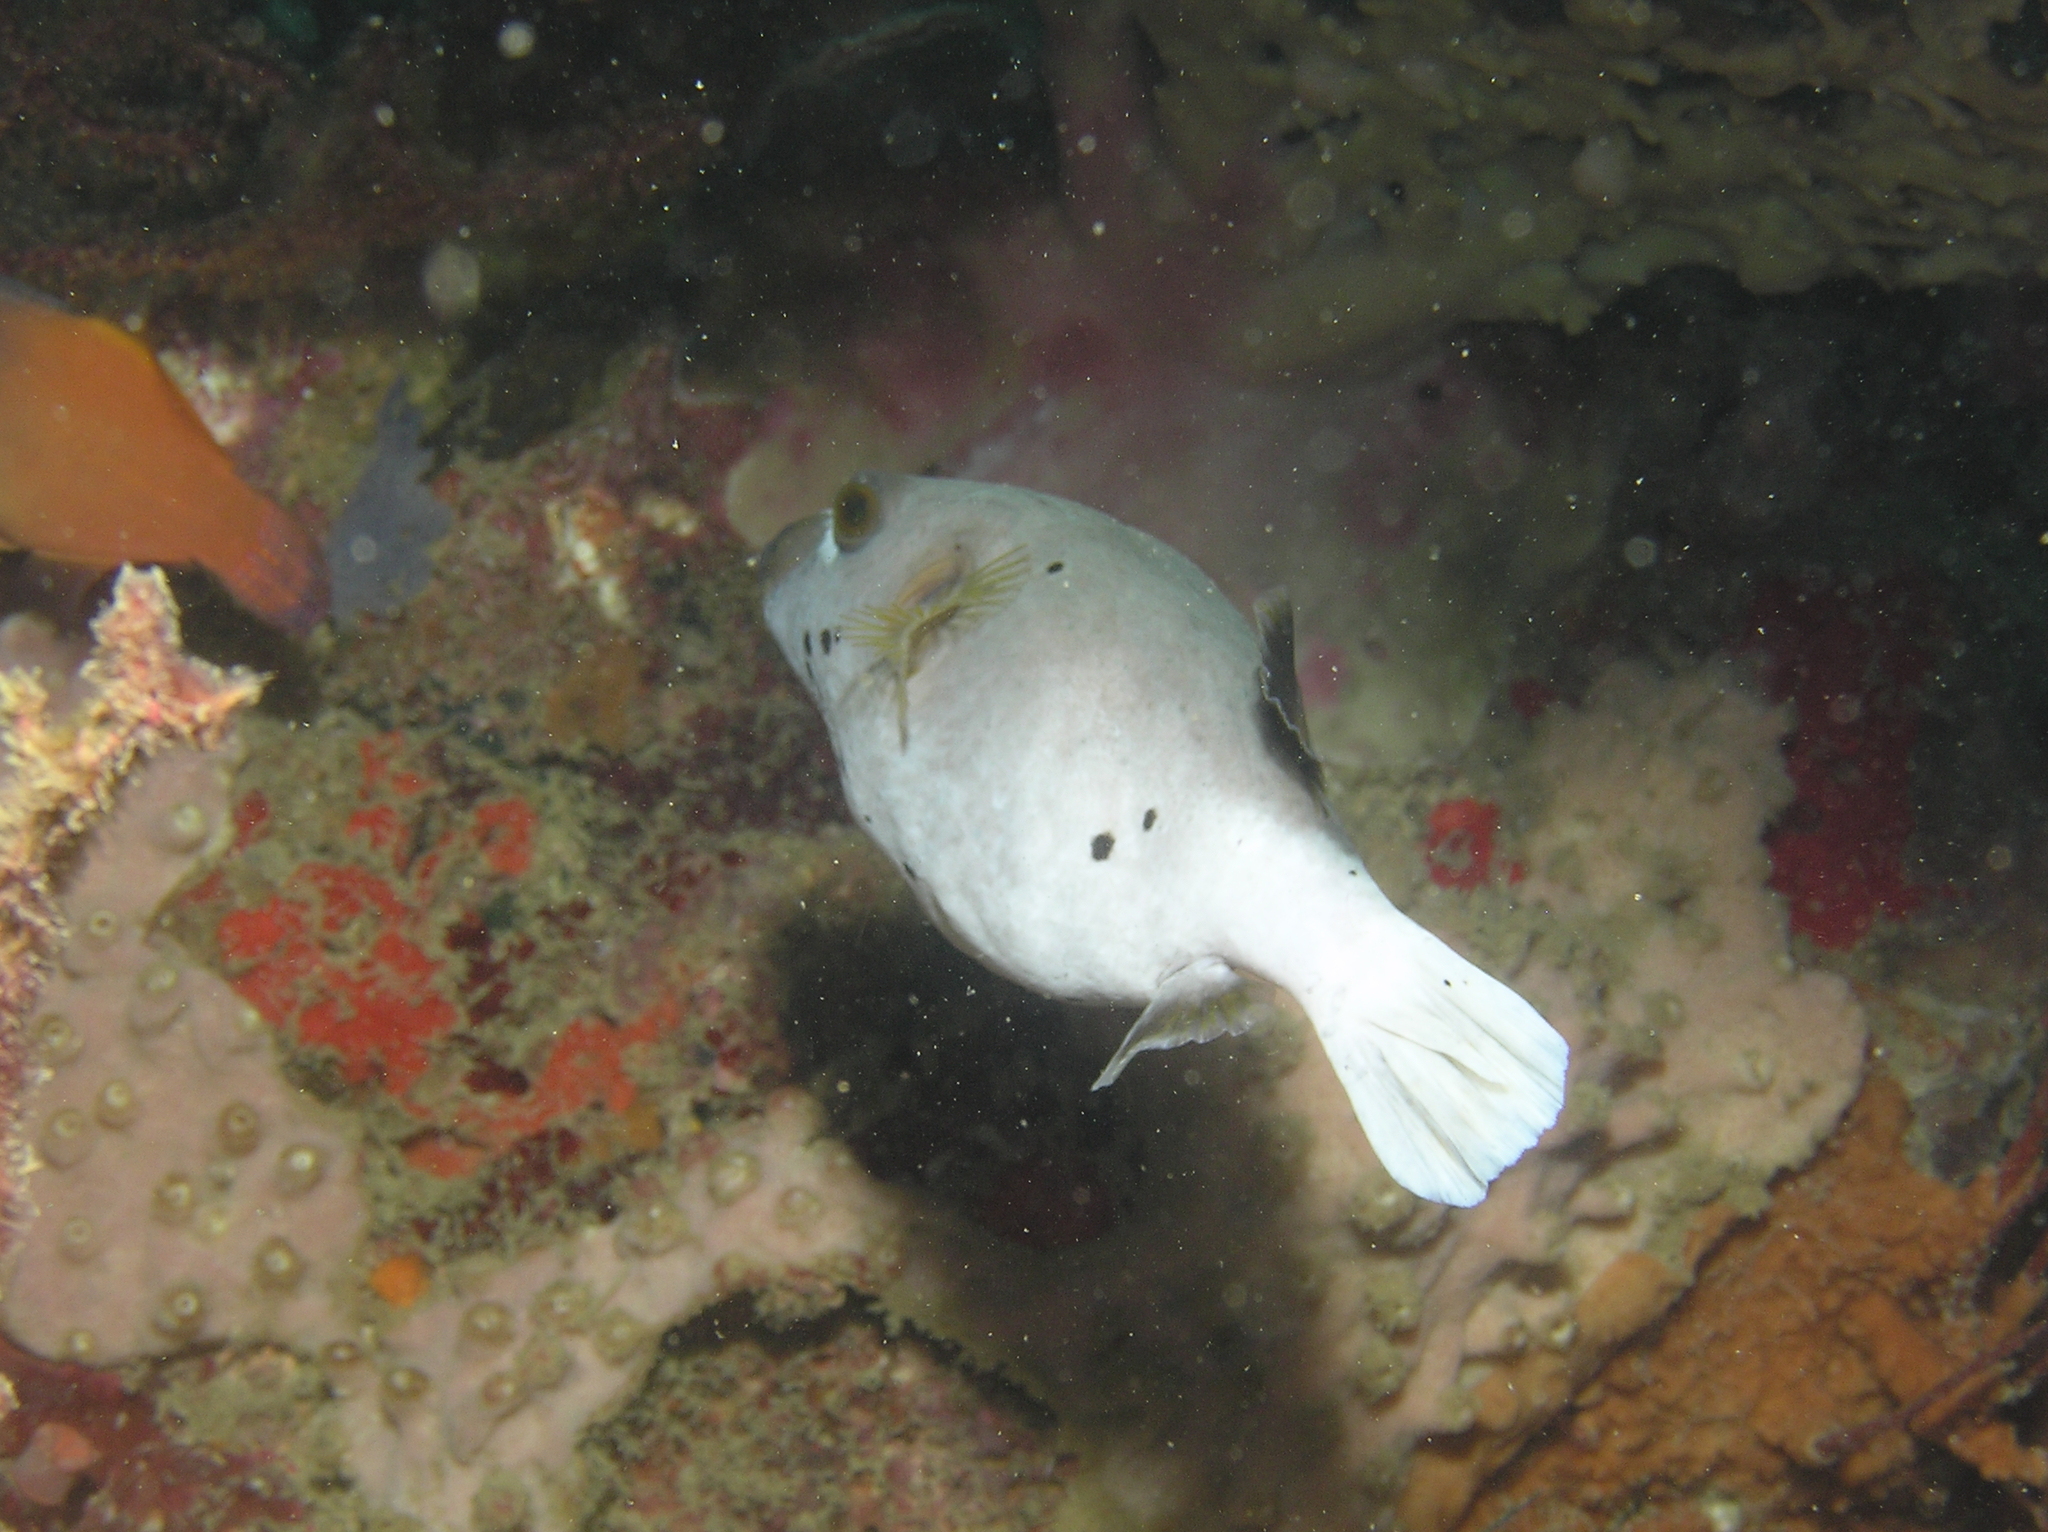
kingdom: Animalia
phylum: Chordata
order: Tetraodontiformes
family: Tetraodontidae
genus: Arothron
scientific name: Arothron nigropunctatus
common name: Black spotted blow fish
